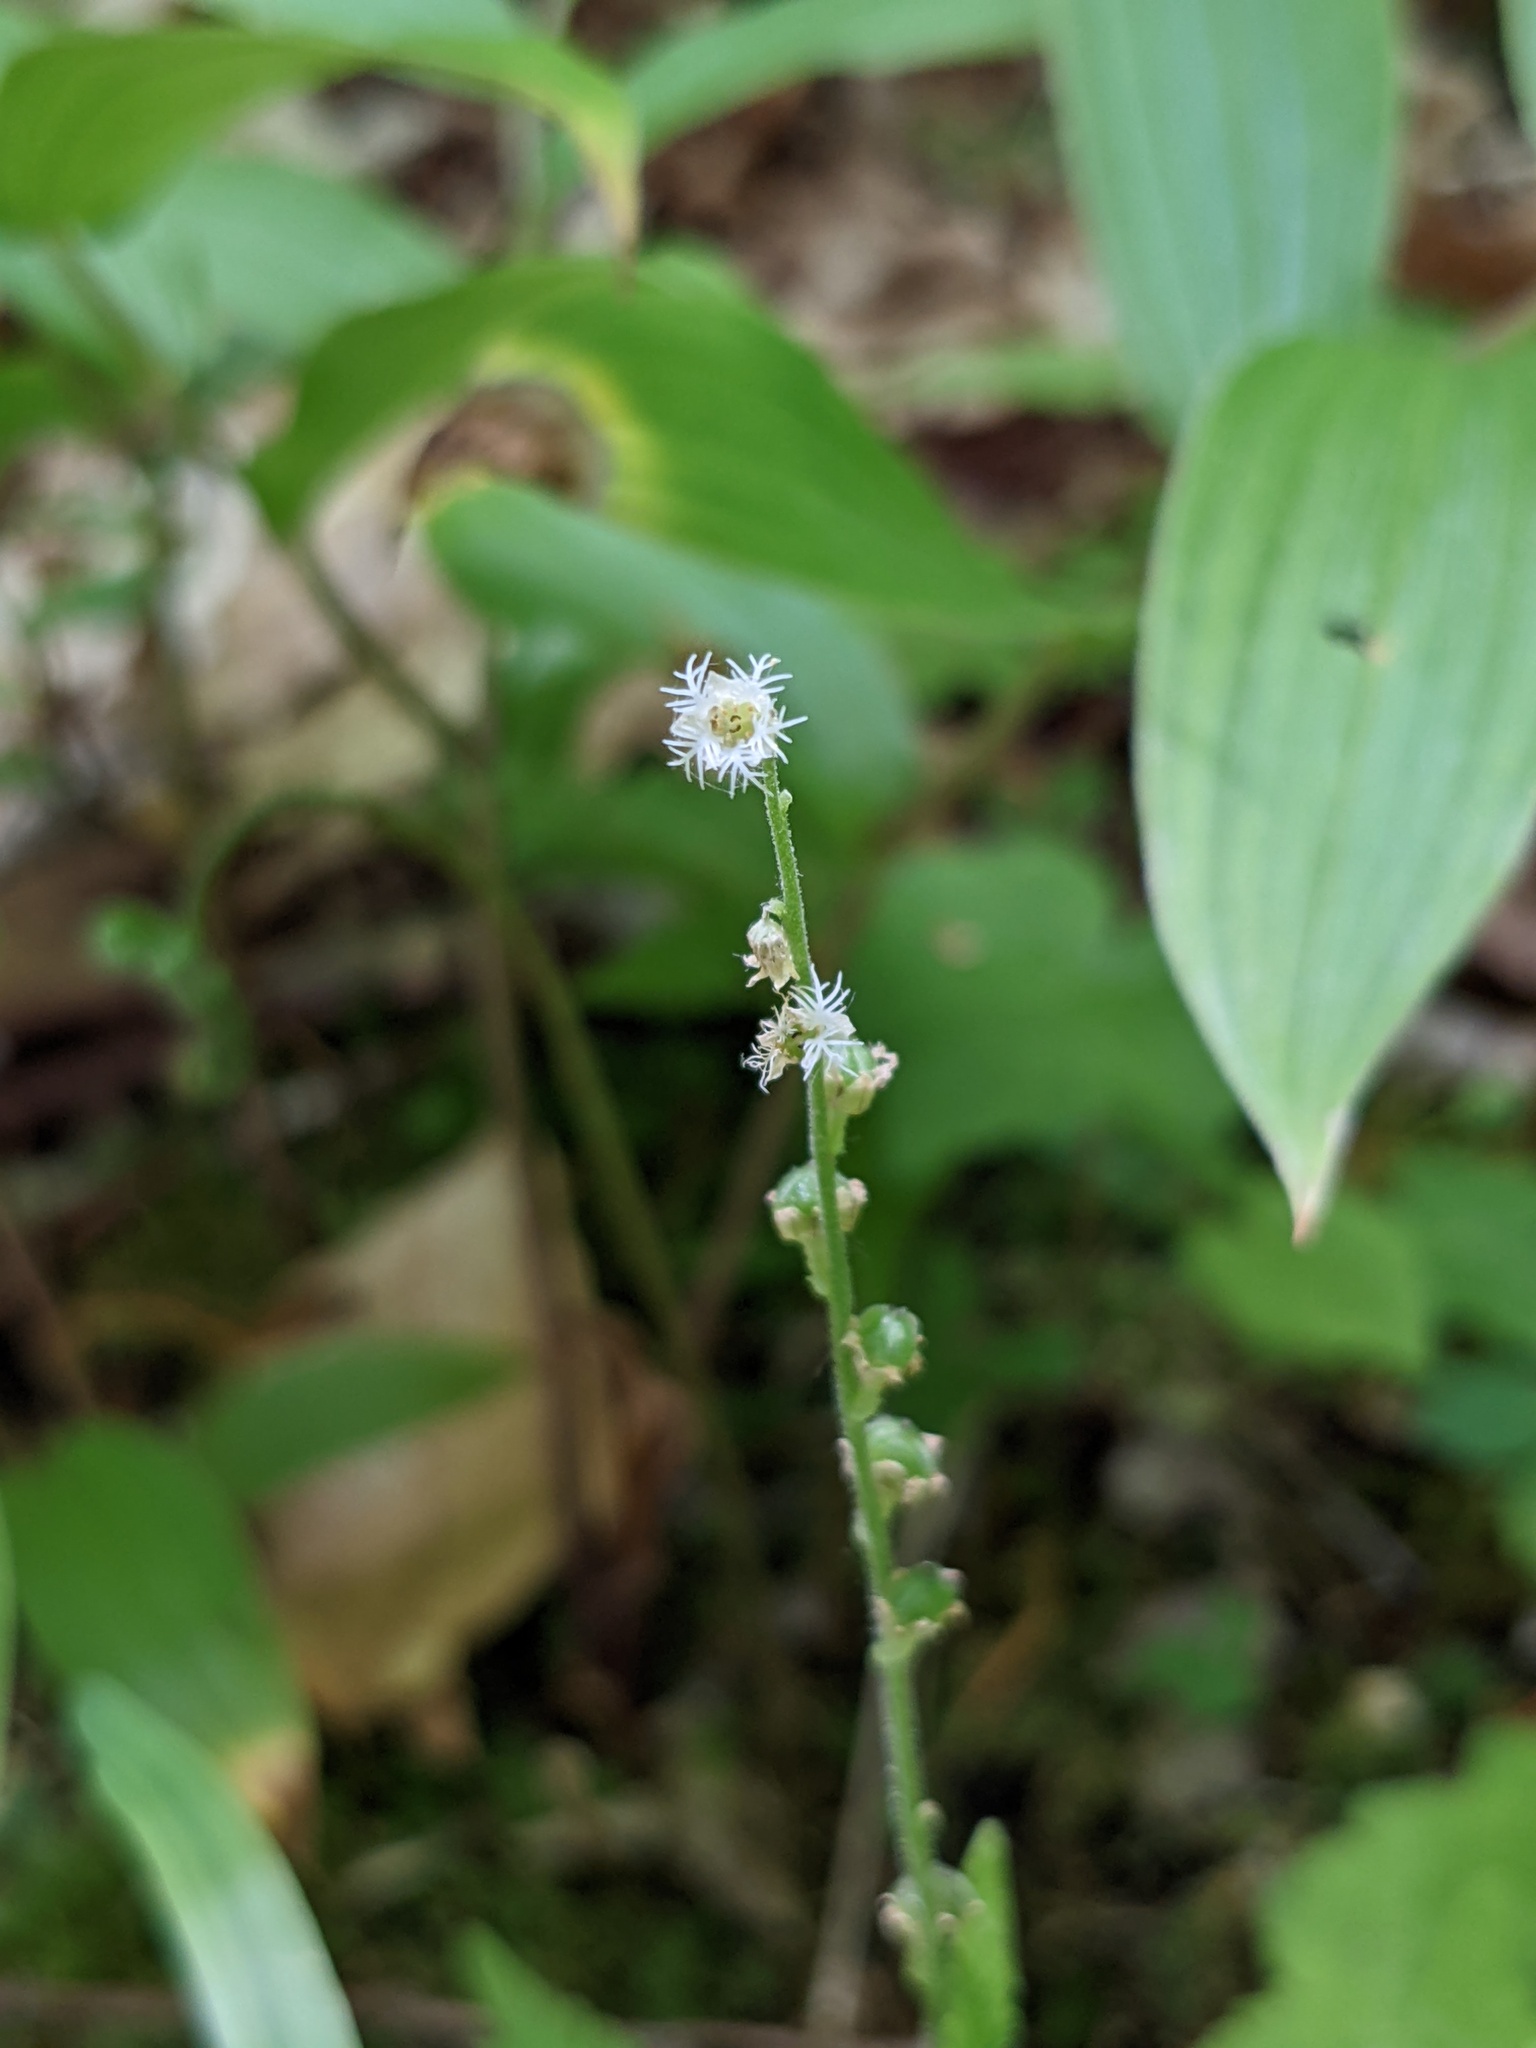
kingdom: Plantae
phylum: Tracheophyta
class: Magnoliopsida
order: Saxifragales
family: Saxifragaceae
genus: Mitella
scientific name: Mitella diphylla
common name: Coolwort
